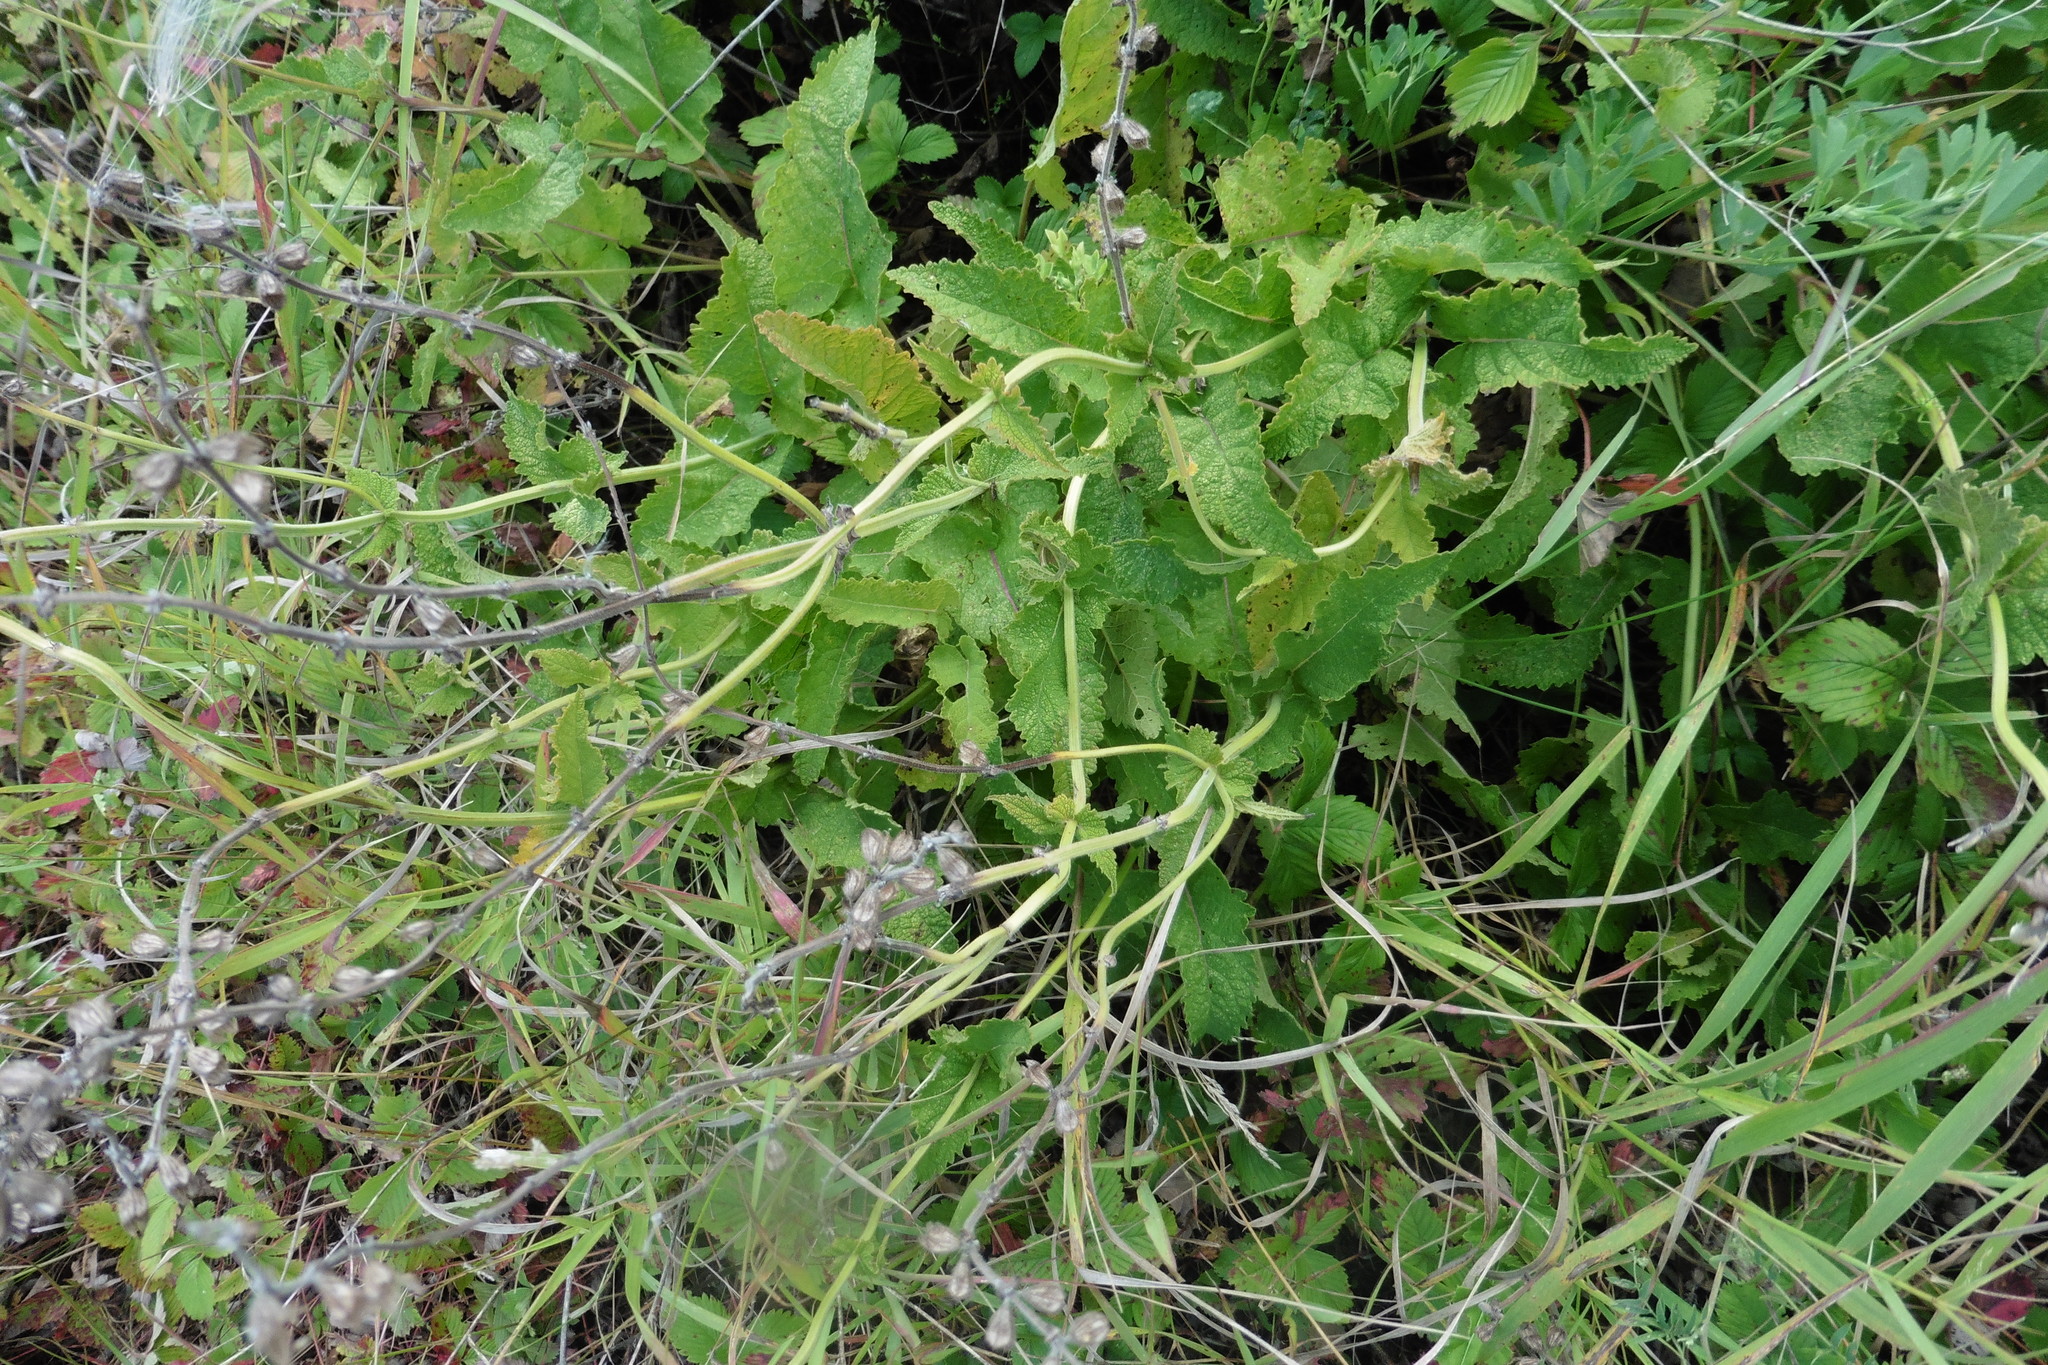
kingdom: Plantae
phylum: Tracheophyta
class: Magnoliopsida
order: Lamiales
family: Lamiaceae
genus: Salvia
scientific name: Salvia dumetorum
